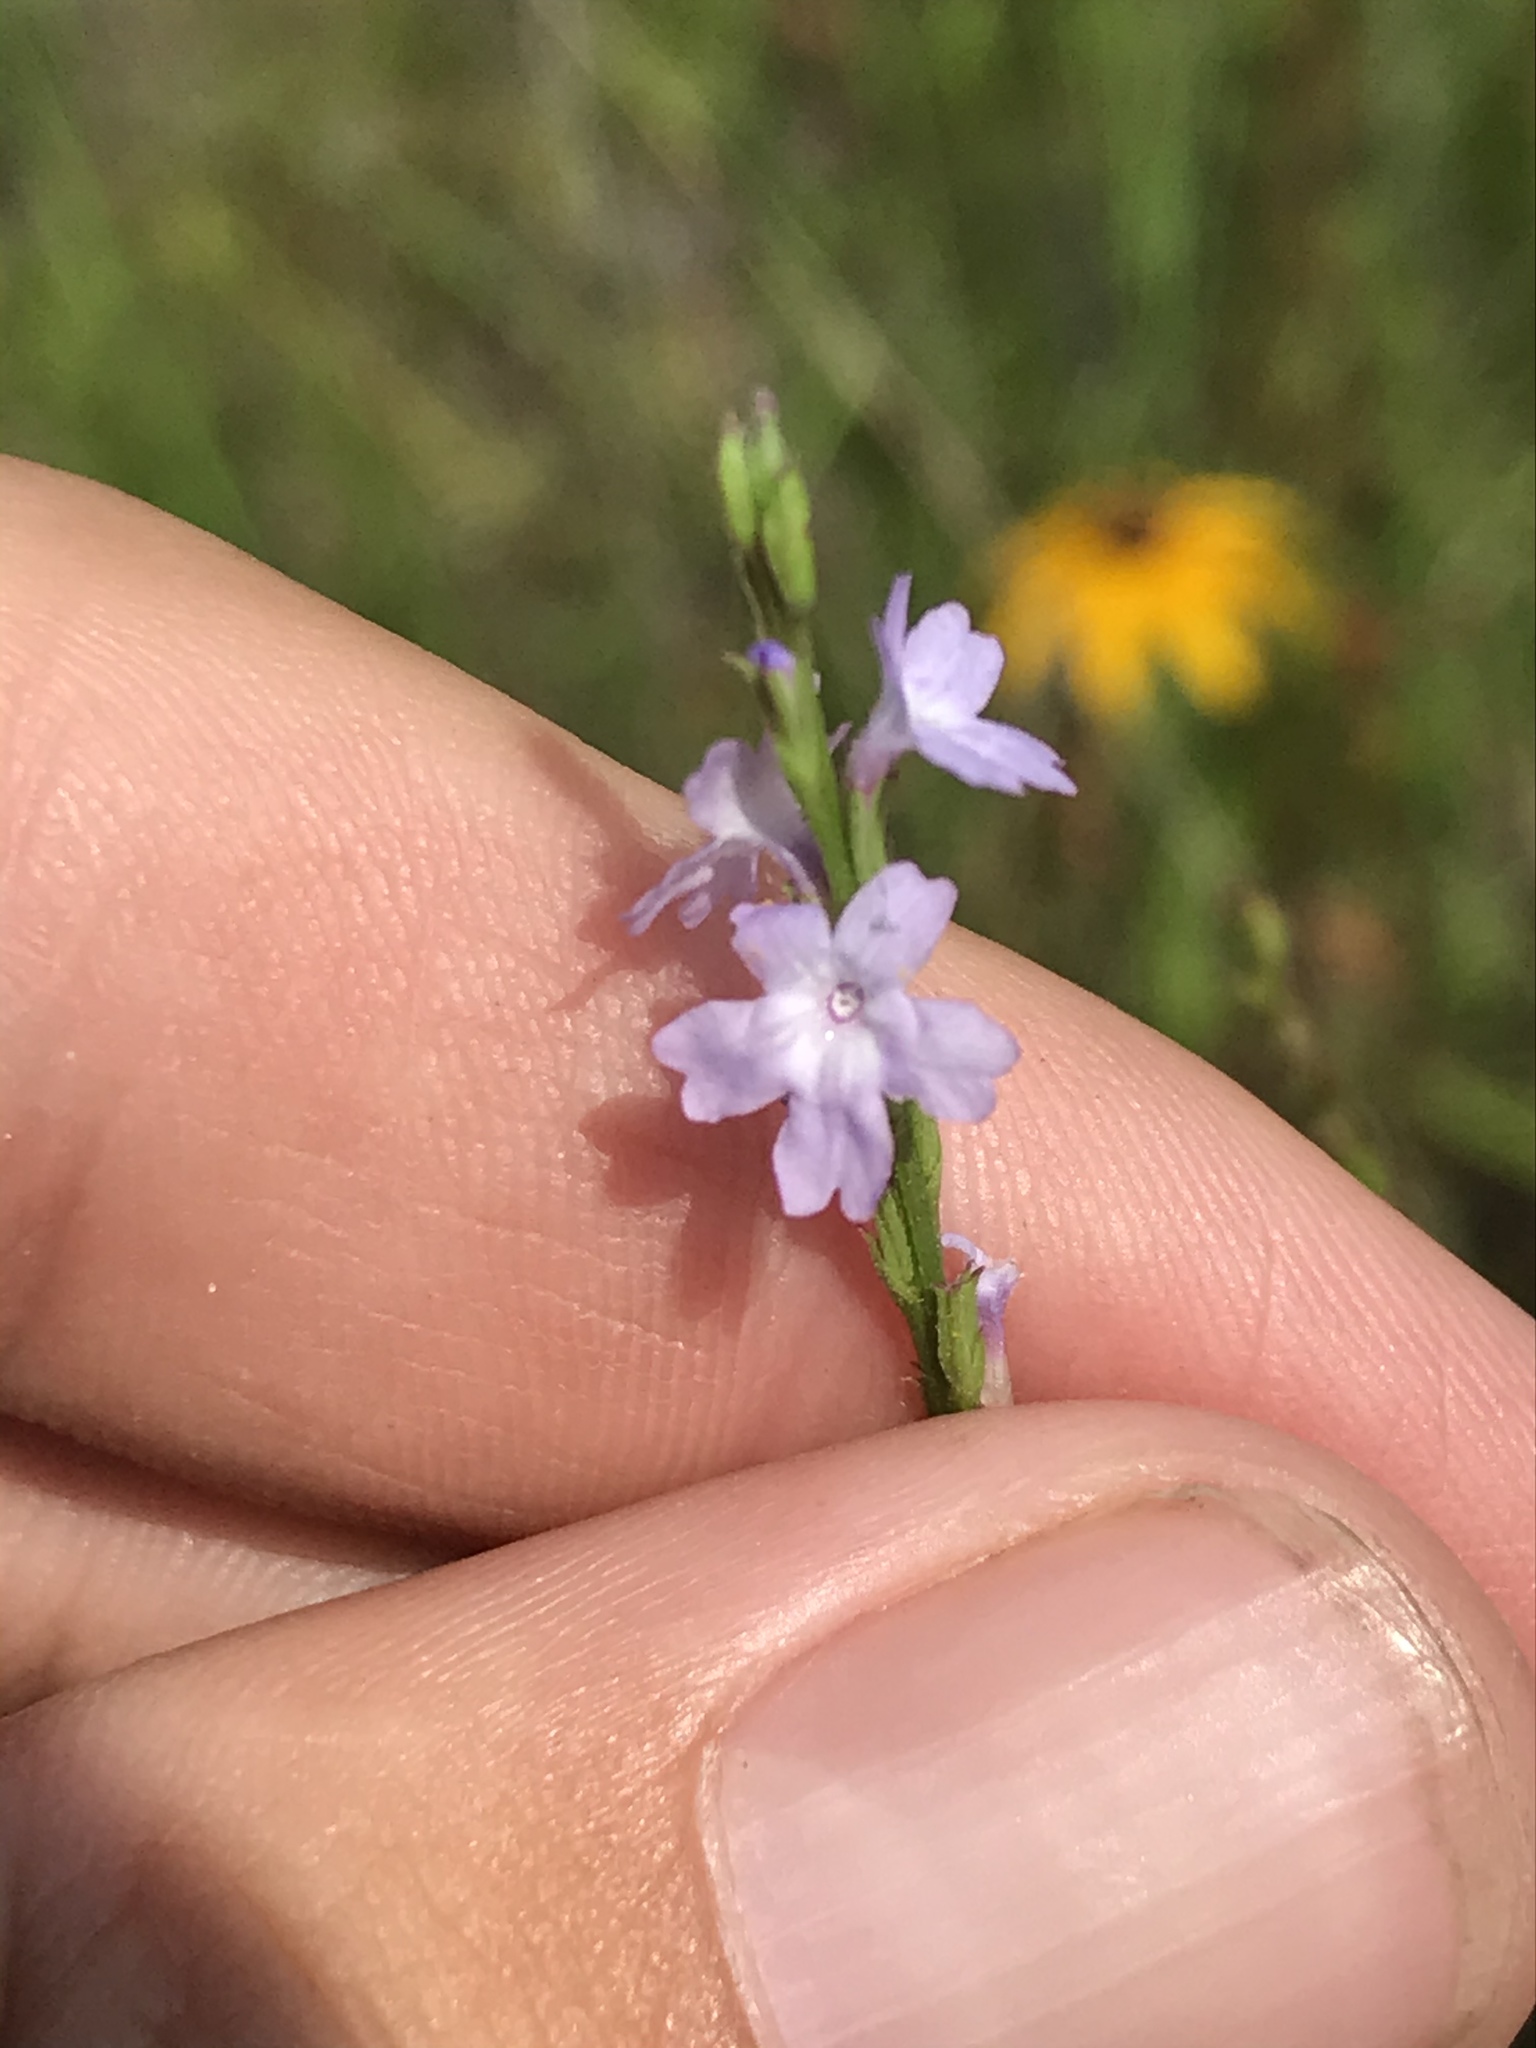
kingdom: Plantae
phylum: Tracheophyta
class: Magnoliopsida
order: Lamiales
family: Verbenaceae
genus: Verbena
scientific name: Verbena halei
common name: Texas vervain
